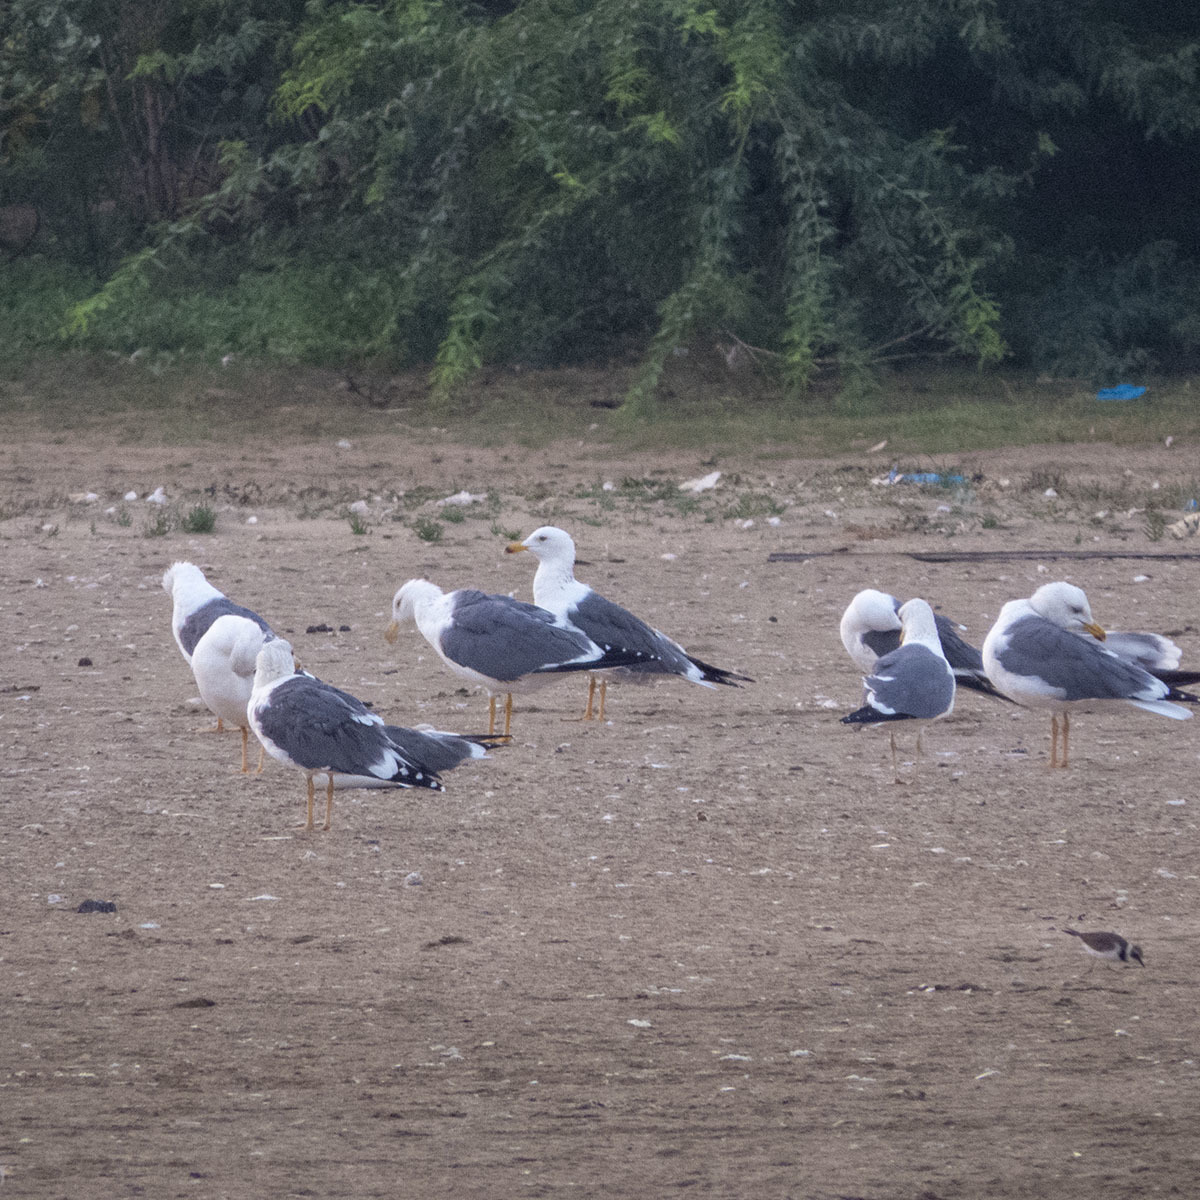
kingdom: Animalia
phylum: Chordata
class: Aves
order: Charadriiformes
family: Laridae
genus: Larus
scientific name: Larus fuscus
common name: Lesser black-backed gull
